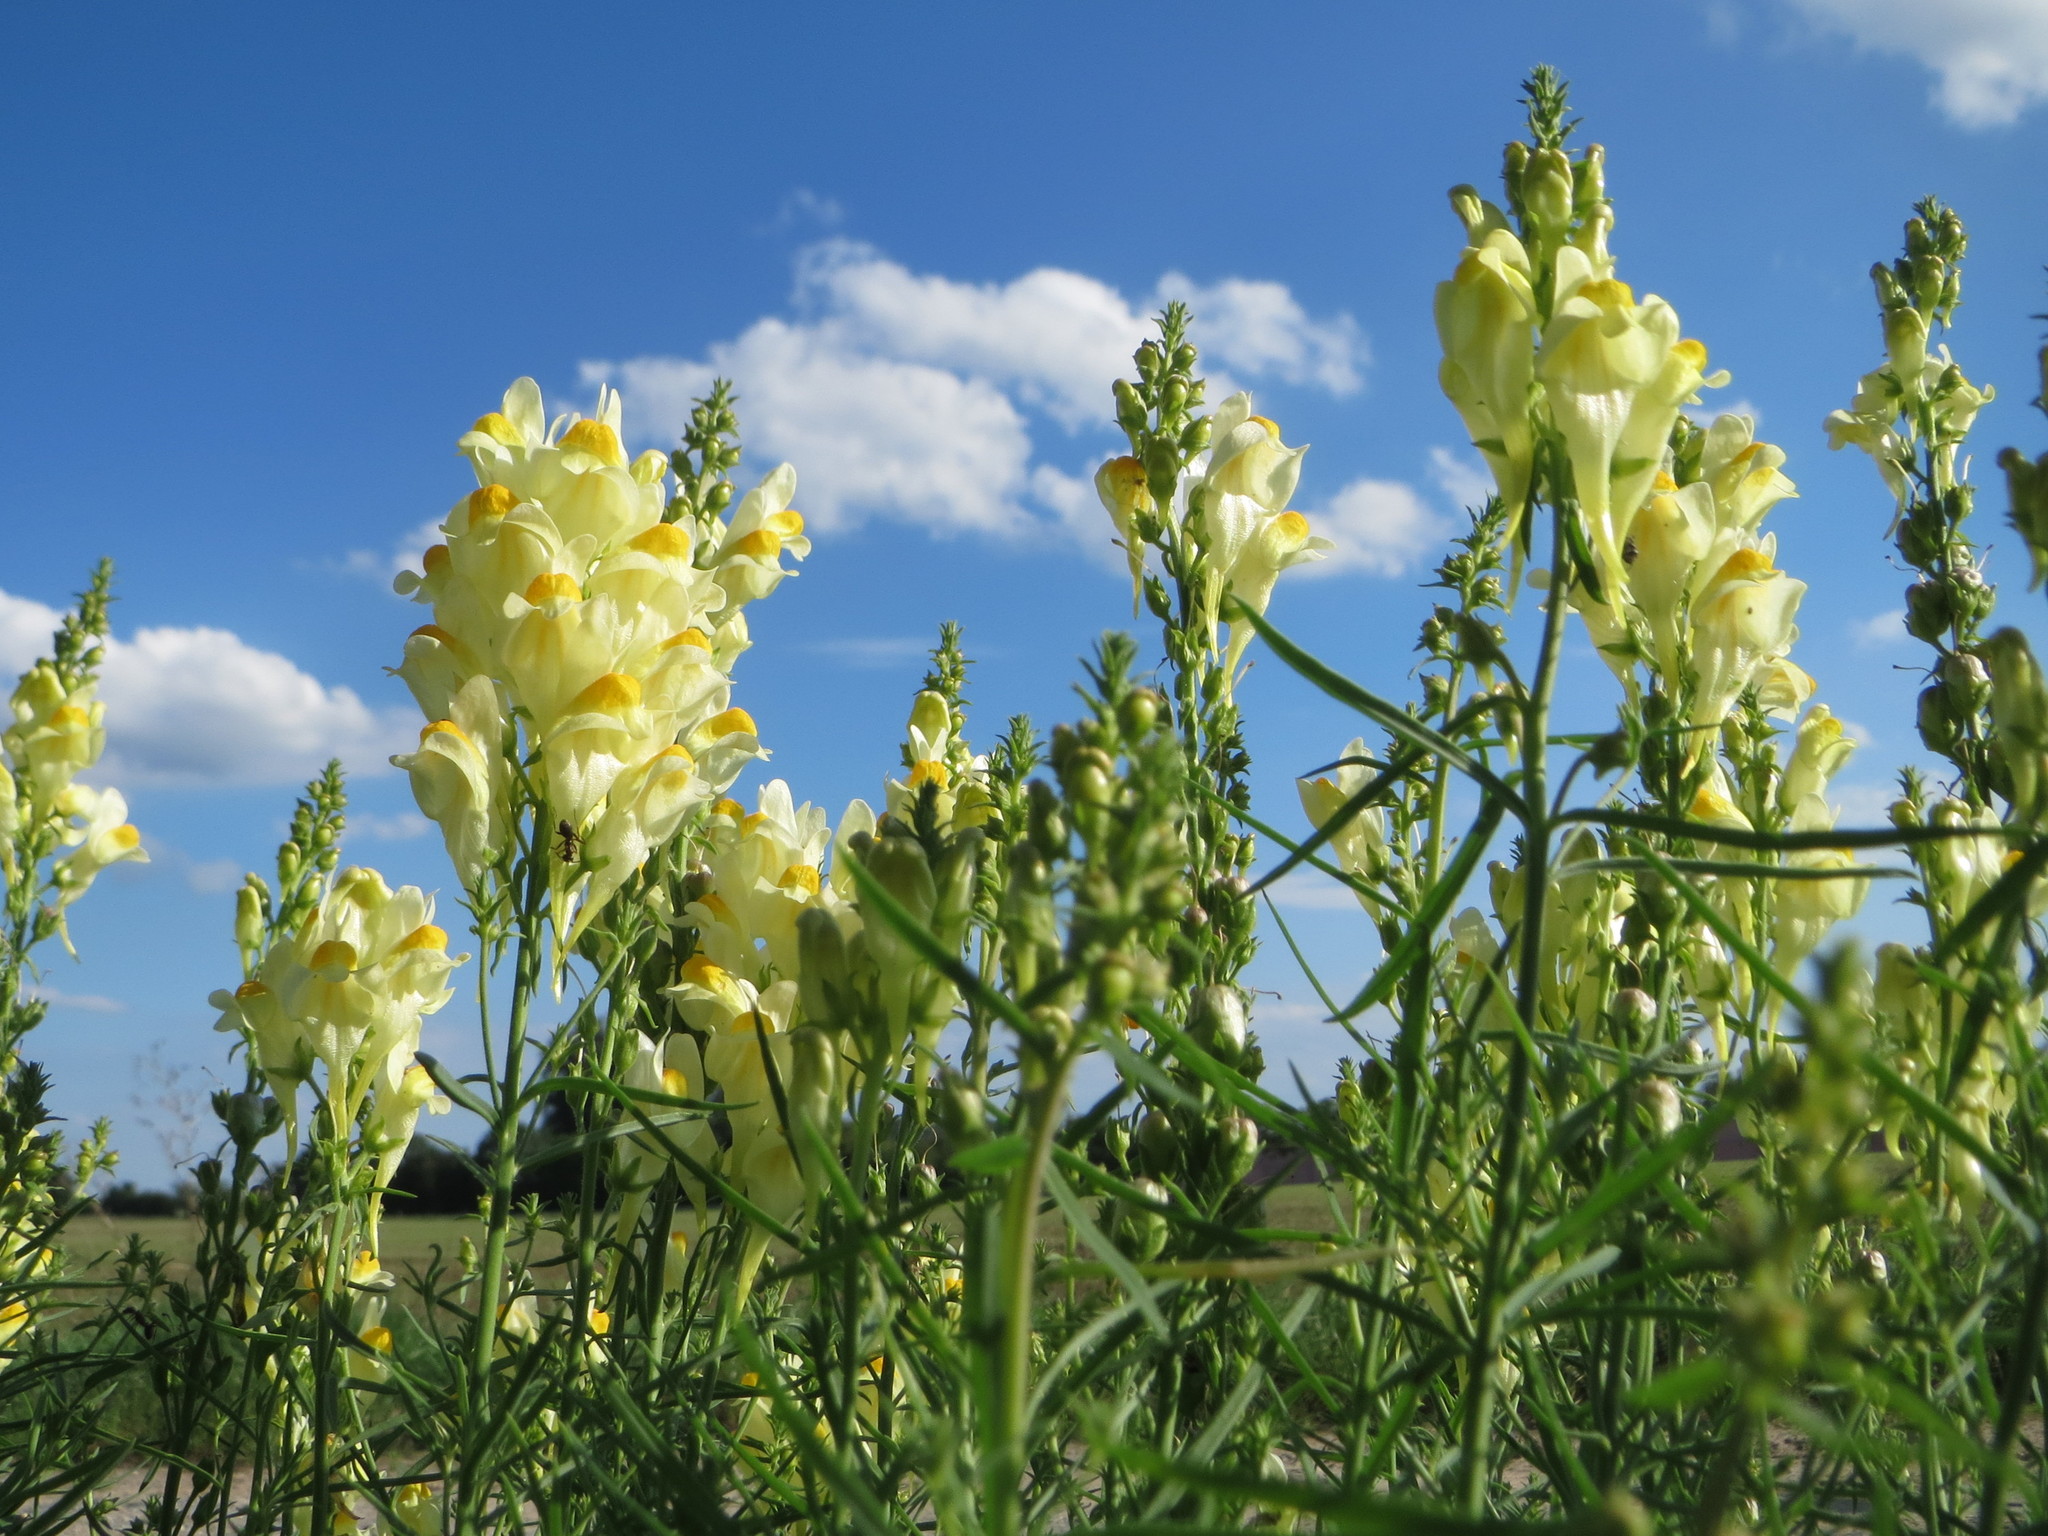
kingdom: Plantae
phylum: Tracheophyta
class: Magnoliopsida
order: Lamiales
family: Plantaginaceae
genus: Linaria
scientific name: Linaria vulgaris
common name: Butter and eggs
